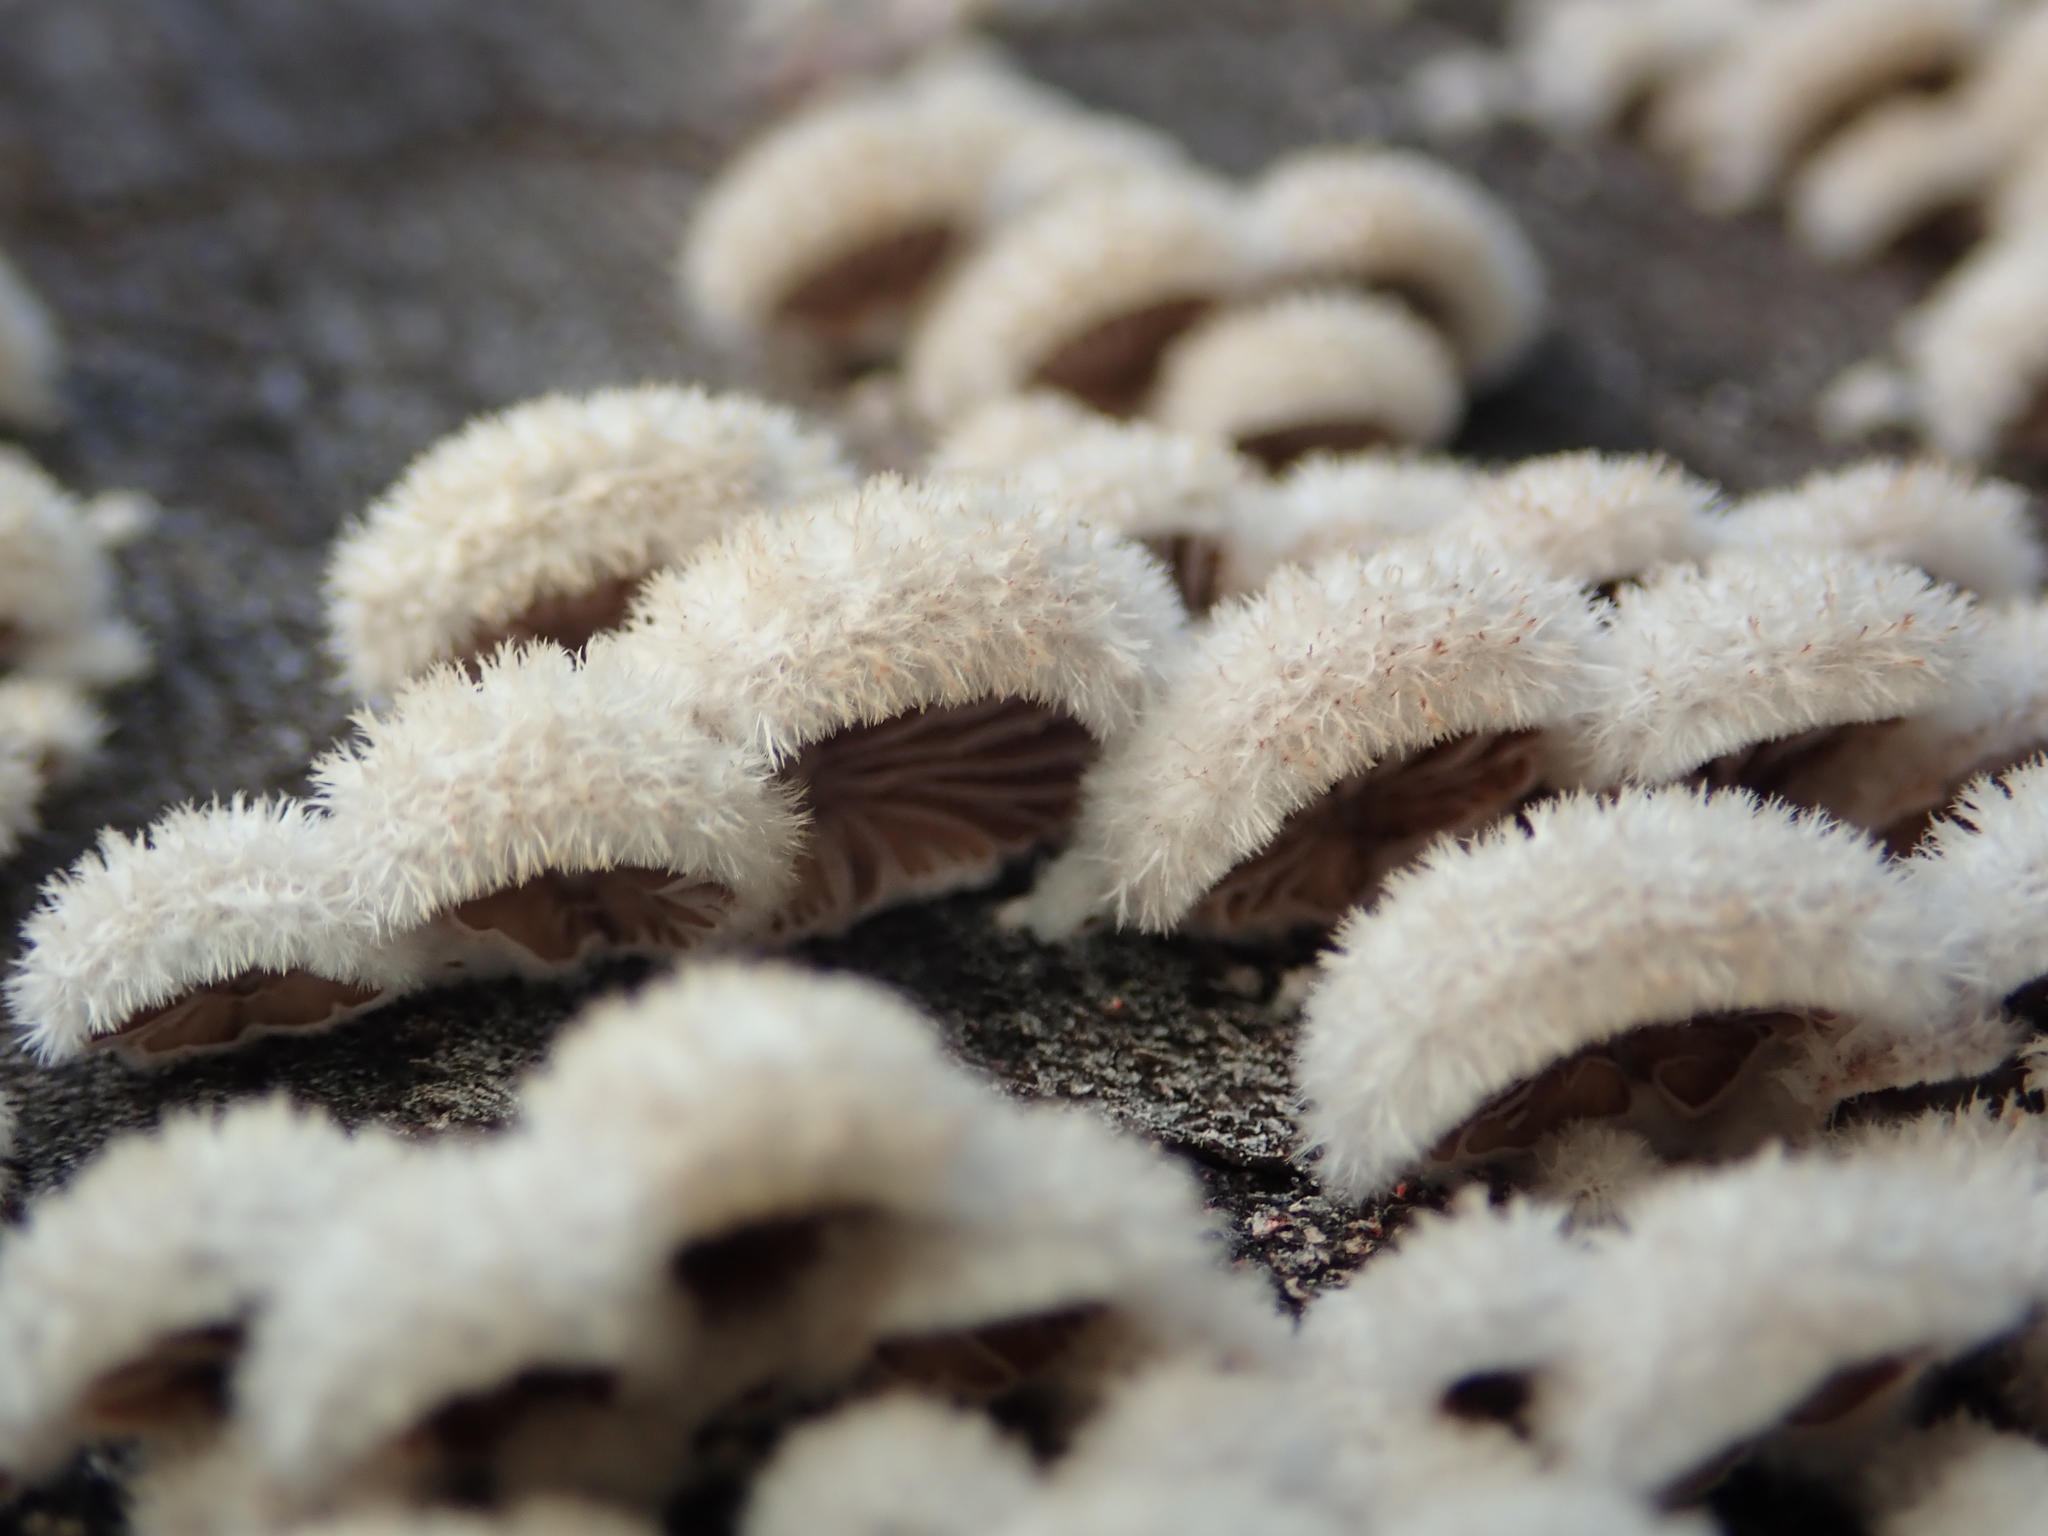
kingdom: Fungi
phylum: Basidiomycota
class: Agaricomycetes
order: Agaricales
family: Schizophyllaceae
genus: Schizophyllum
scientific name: Schizophyllum commune
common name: Common porecrust
